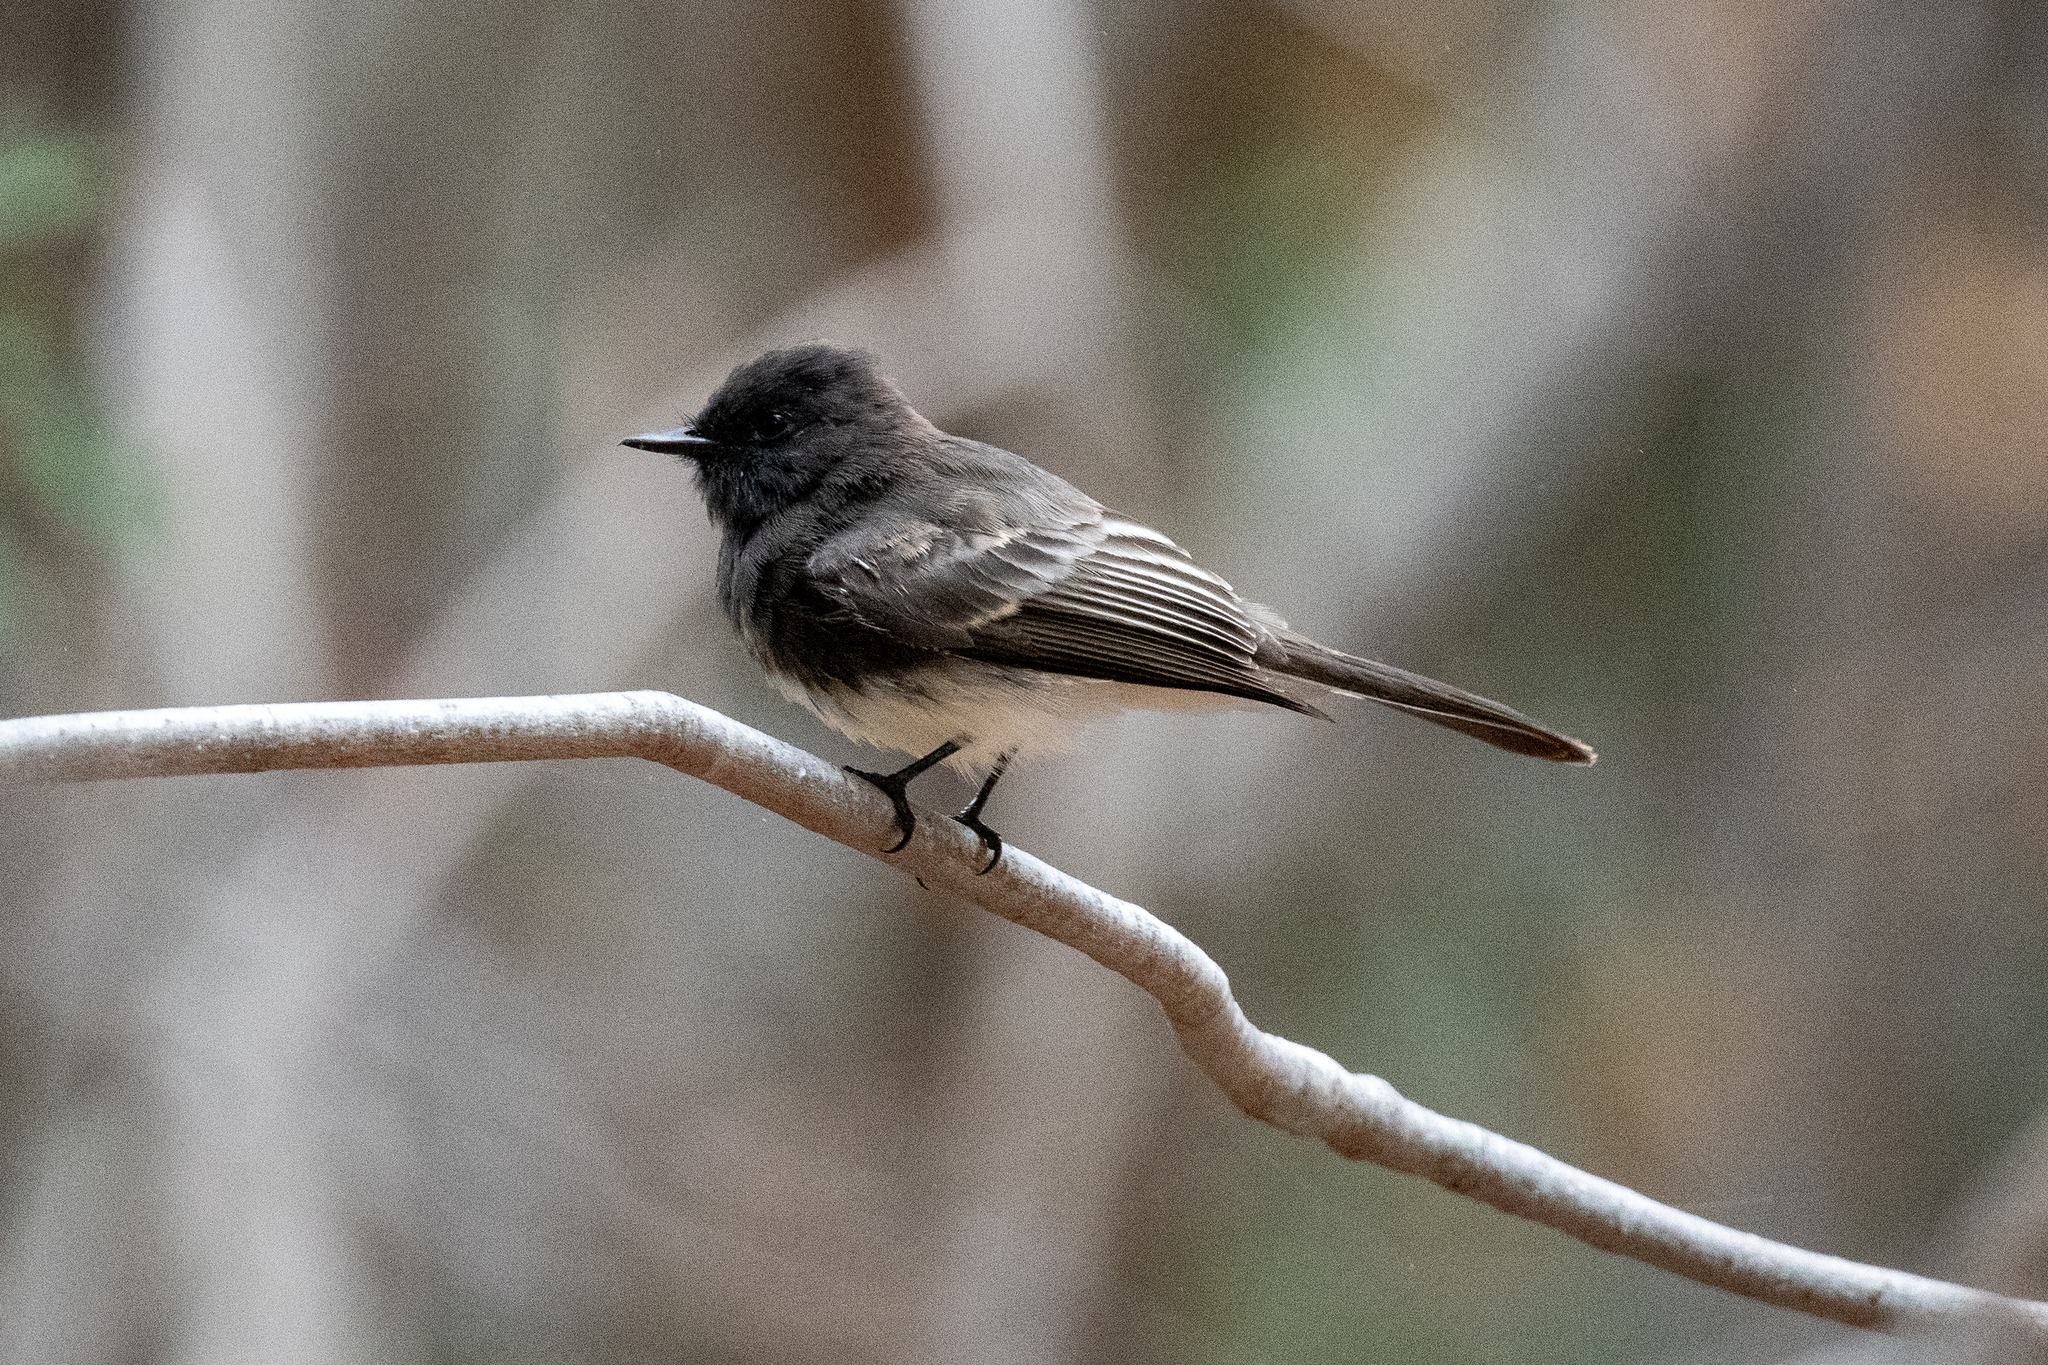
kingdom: Animalia
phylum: Chordata
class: Aves
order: Passeriformes
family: Tyrannidae
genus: Sayornis
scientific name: Sayornis nigricans
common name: Black phoebe
